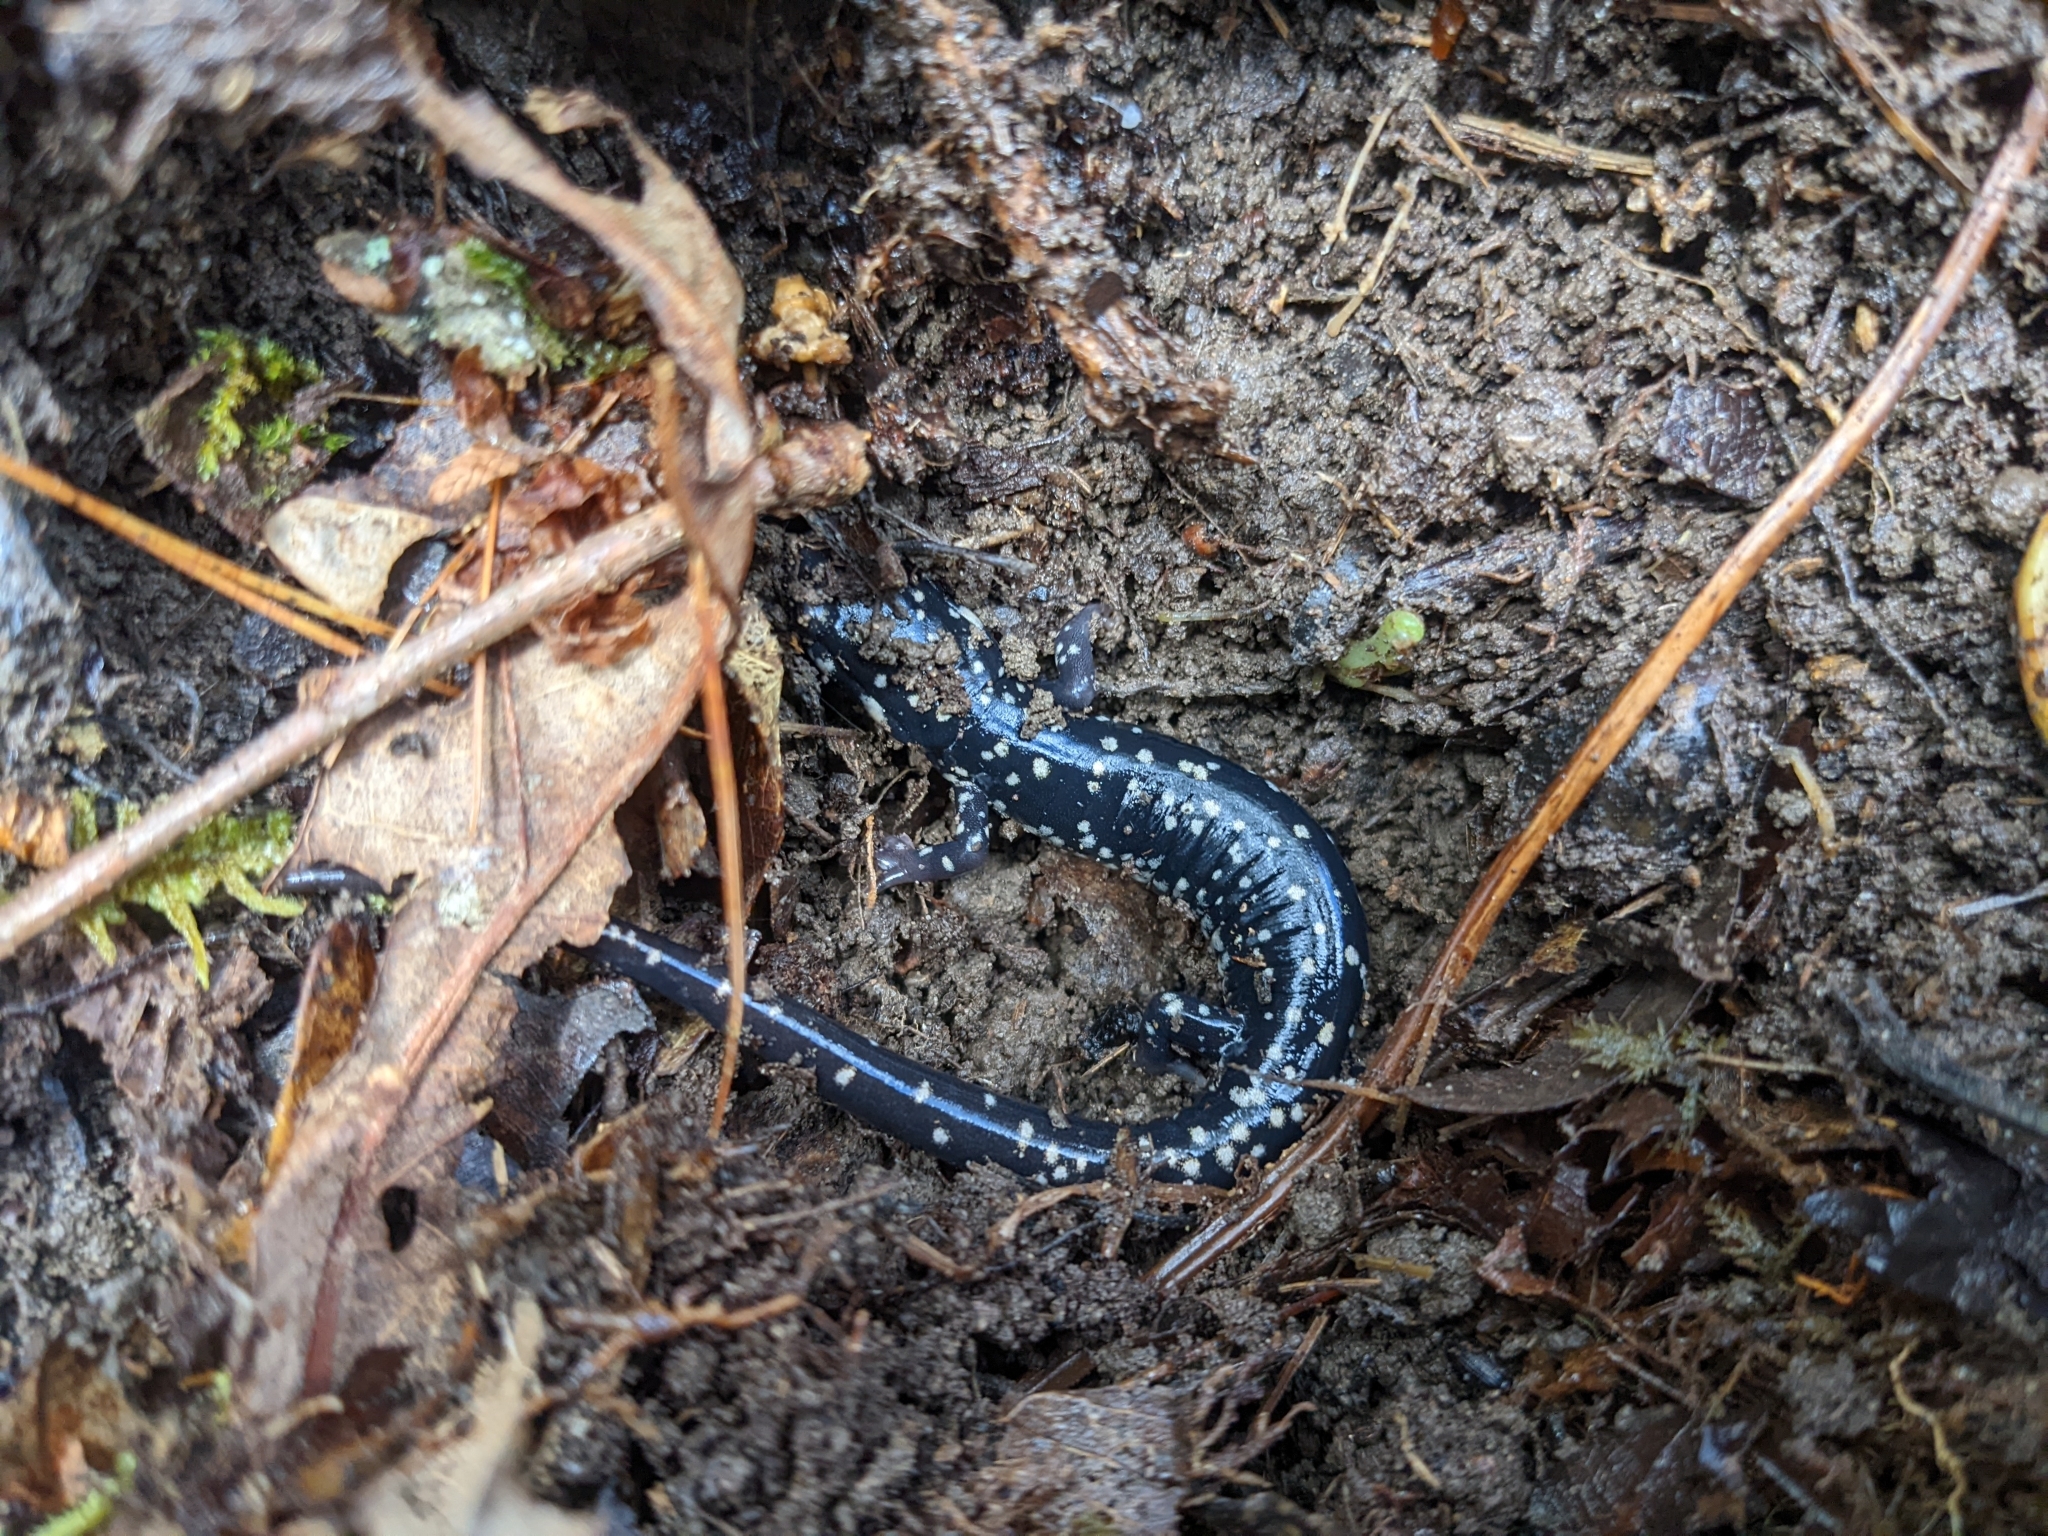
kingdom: Animalia
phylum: Chordata
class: Amphibia
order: Caudata
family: Plethodontidae
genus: Plethodon
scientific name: Plethodon glutinosus
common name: Northern slimy salamander
